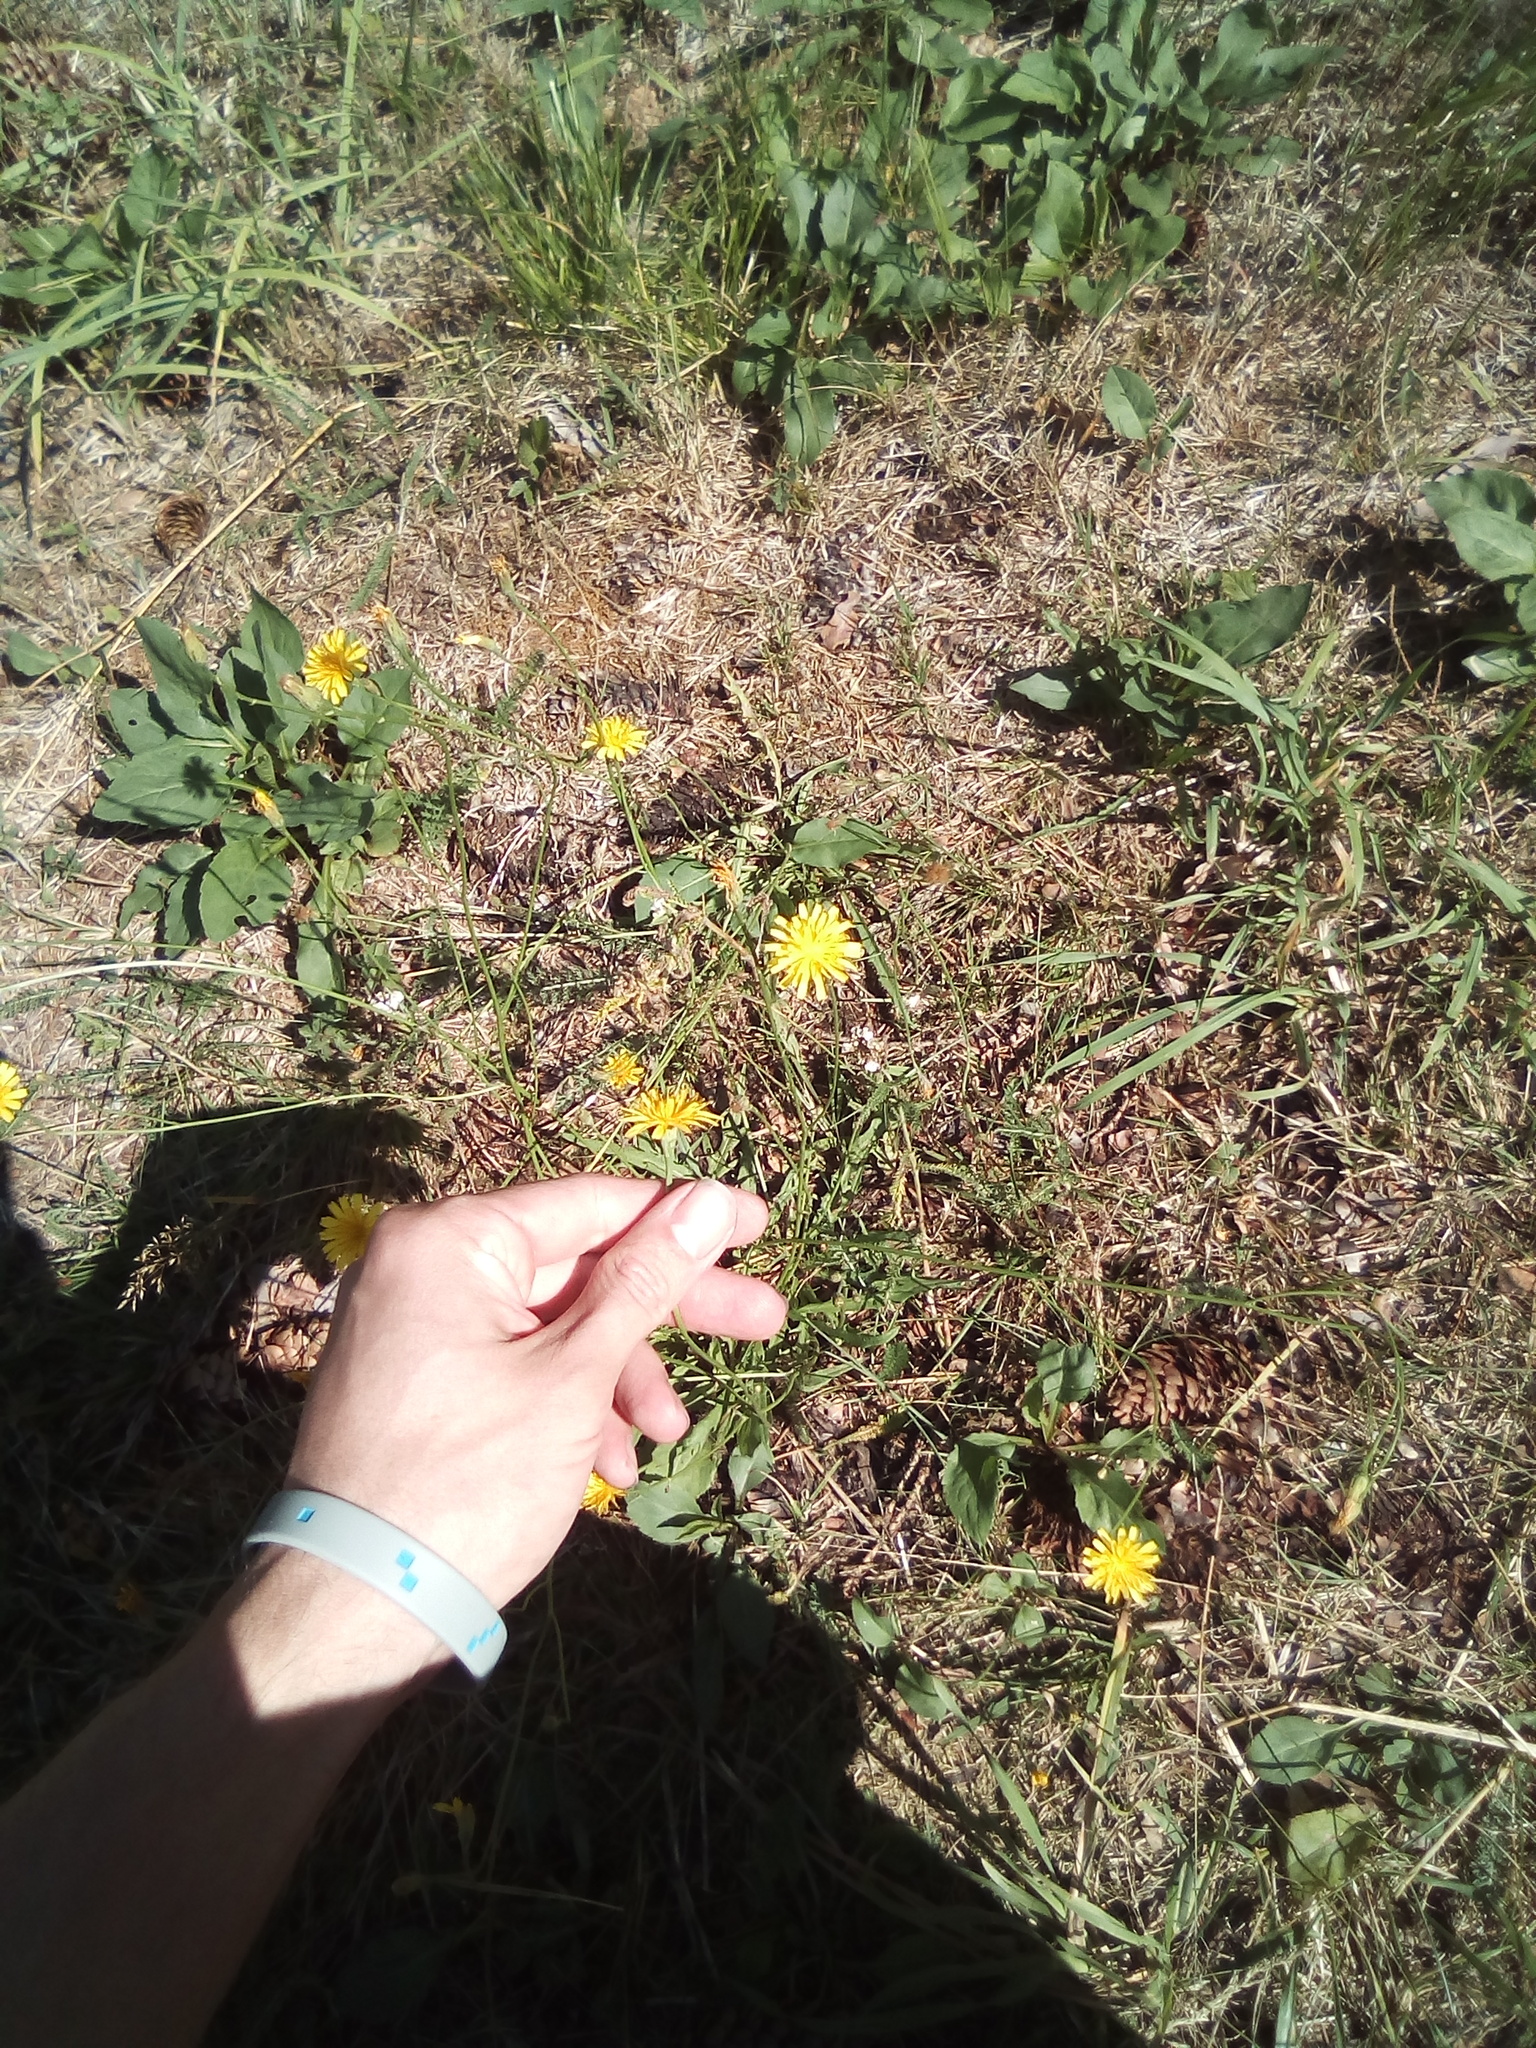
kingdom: Plantae
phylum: Tracheophyta
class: Magnoliopsida
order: Asterales
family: Asteraceae
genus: Scorzoneroides
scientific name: Scorzoneroides autumnalis
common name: Autumn hawkbit
